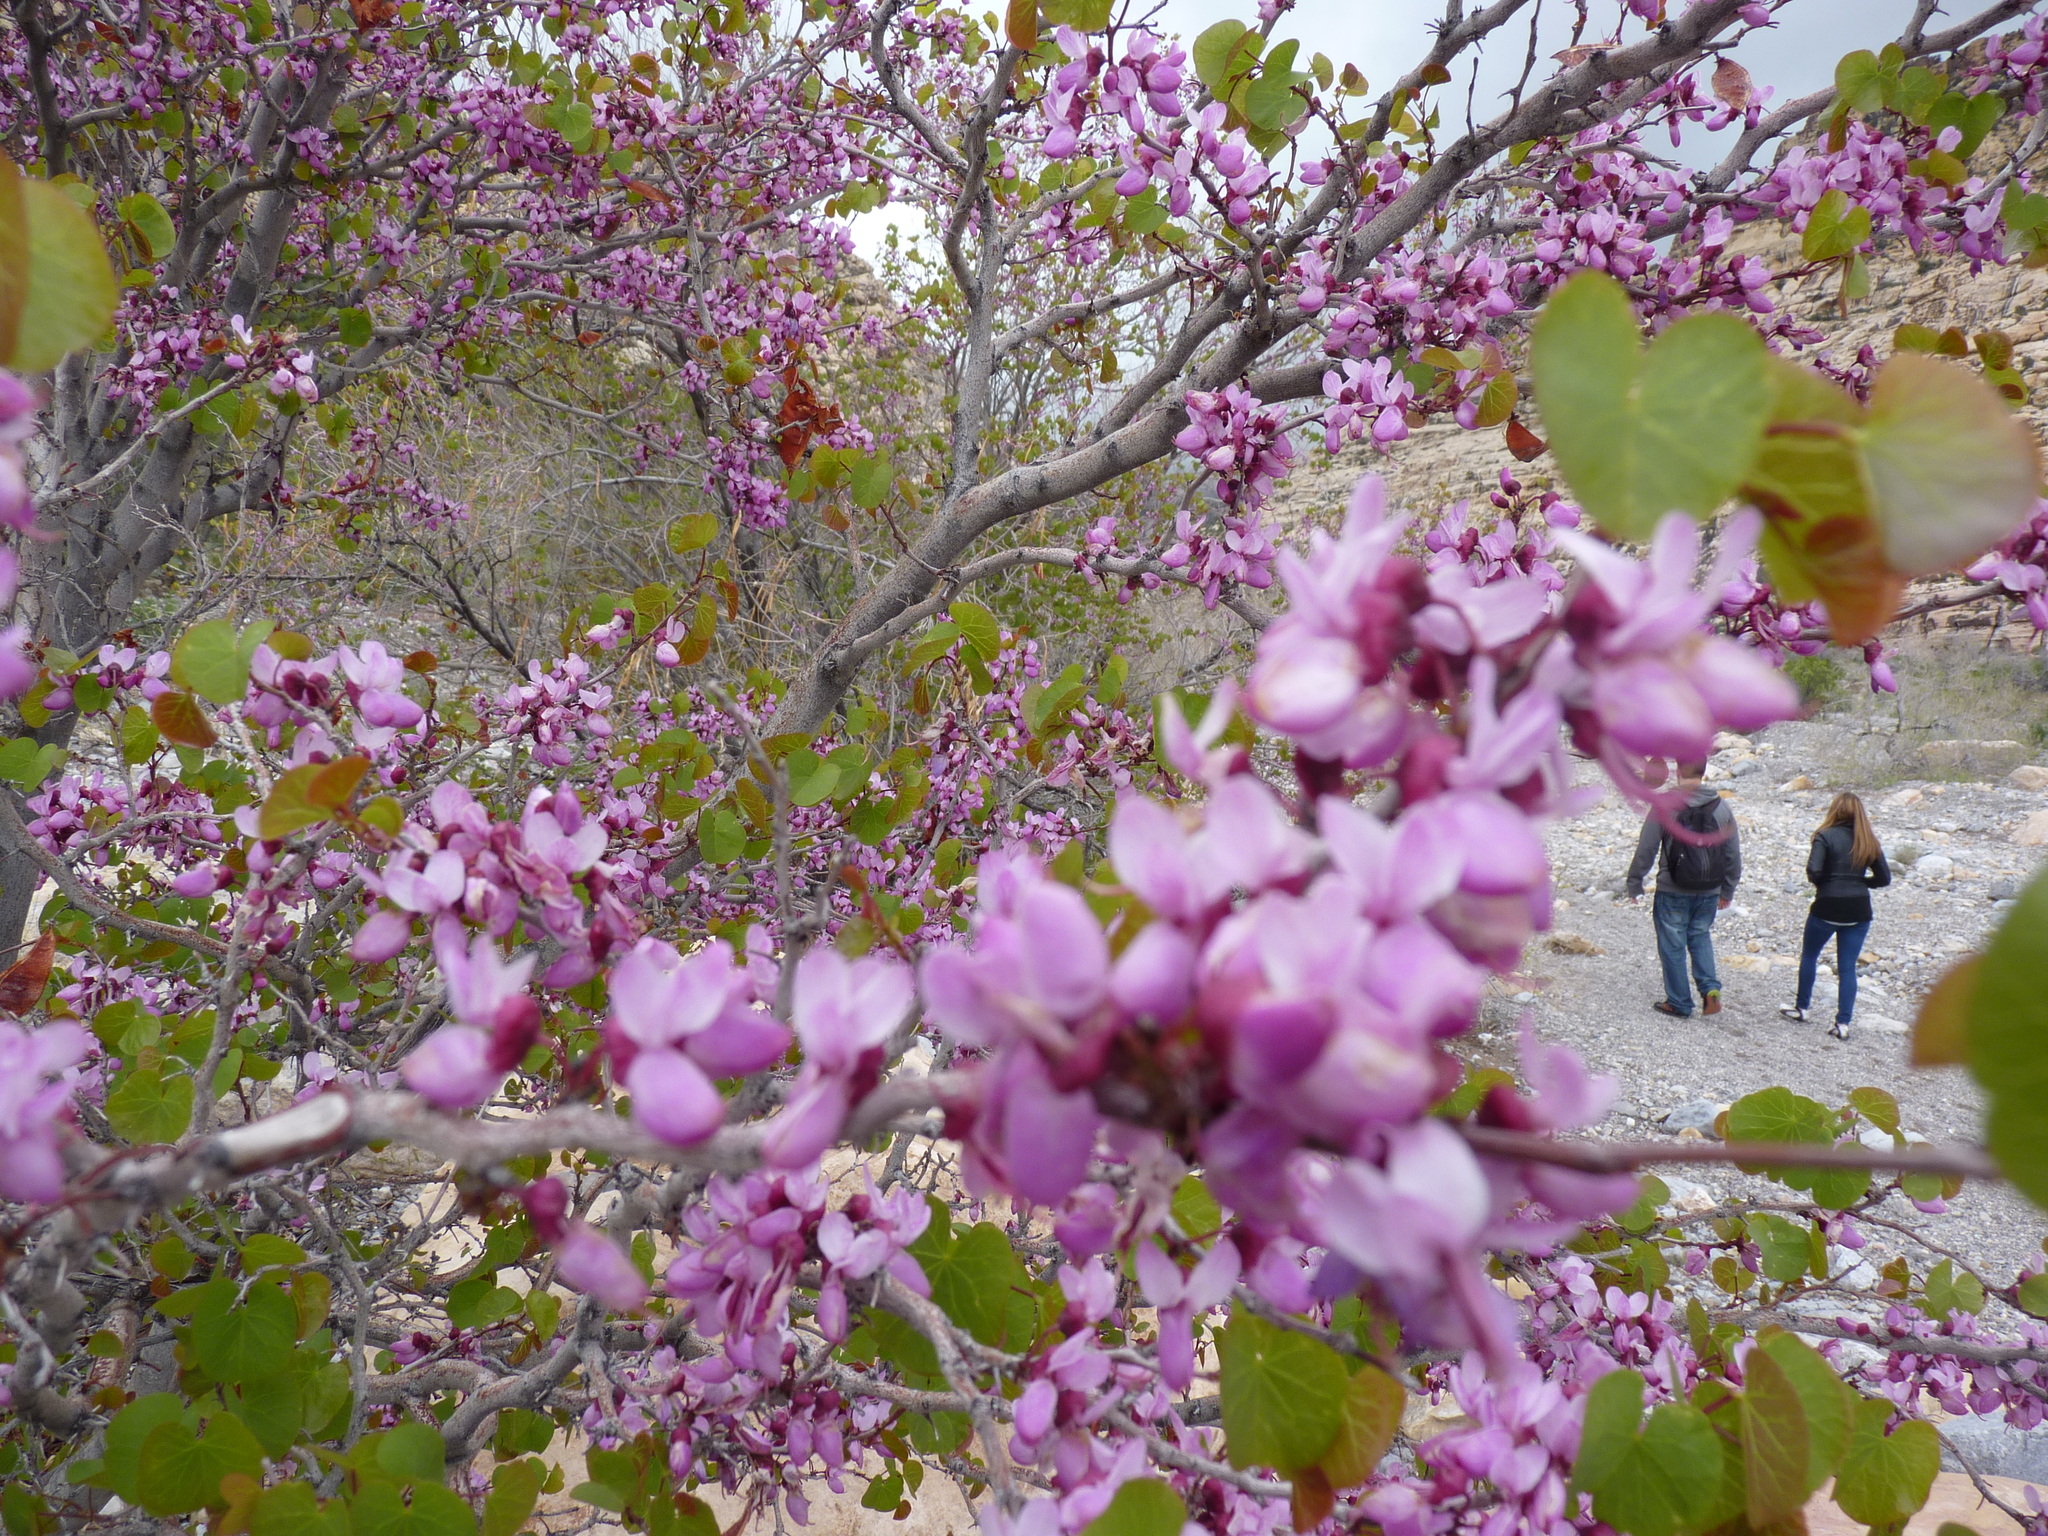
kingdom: Plantae
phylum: Tracheophyta
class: Magnoliopsida
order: Fabales
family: Fabaceae
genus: Cercis
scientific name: Cercis occidentalis
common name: California redbud
